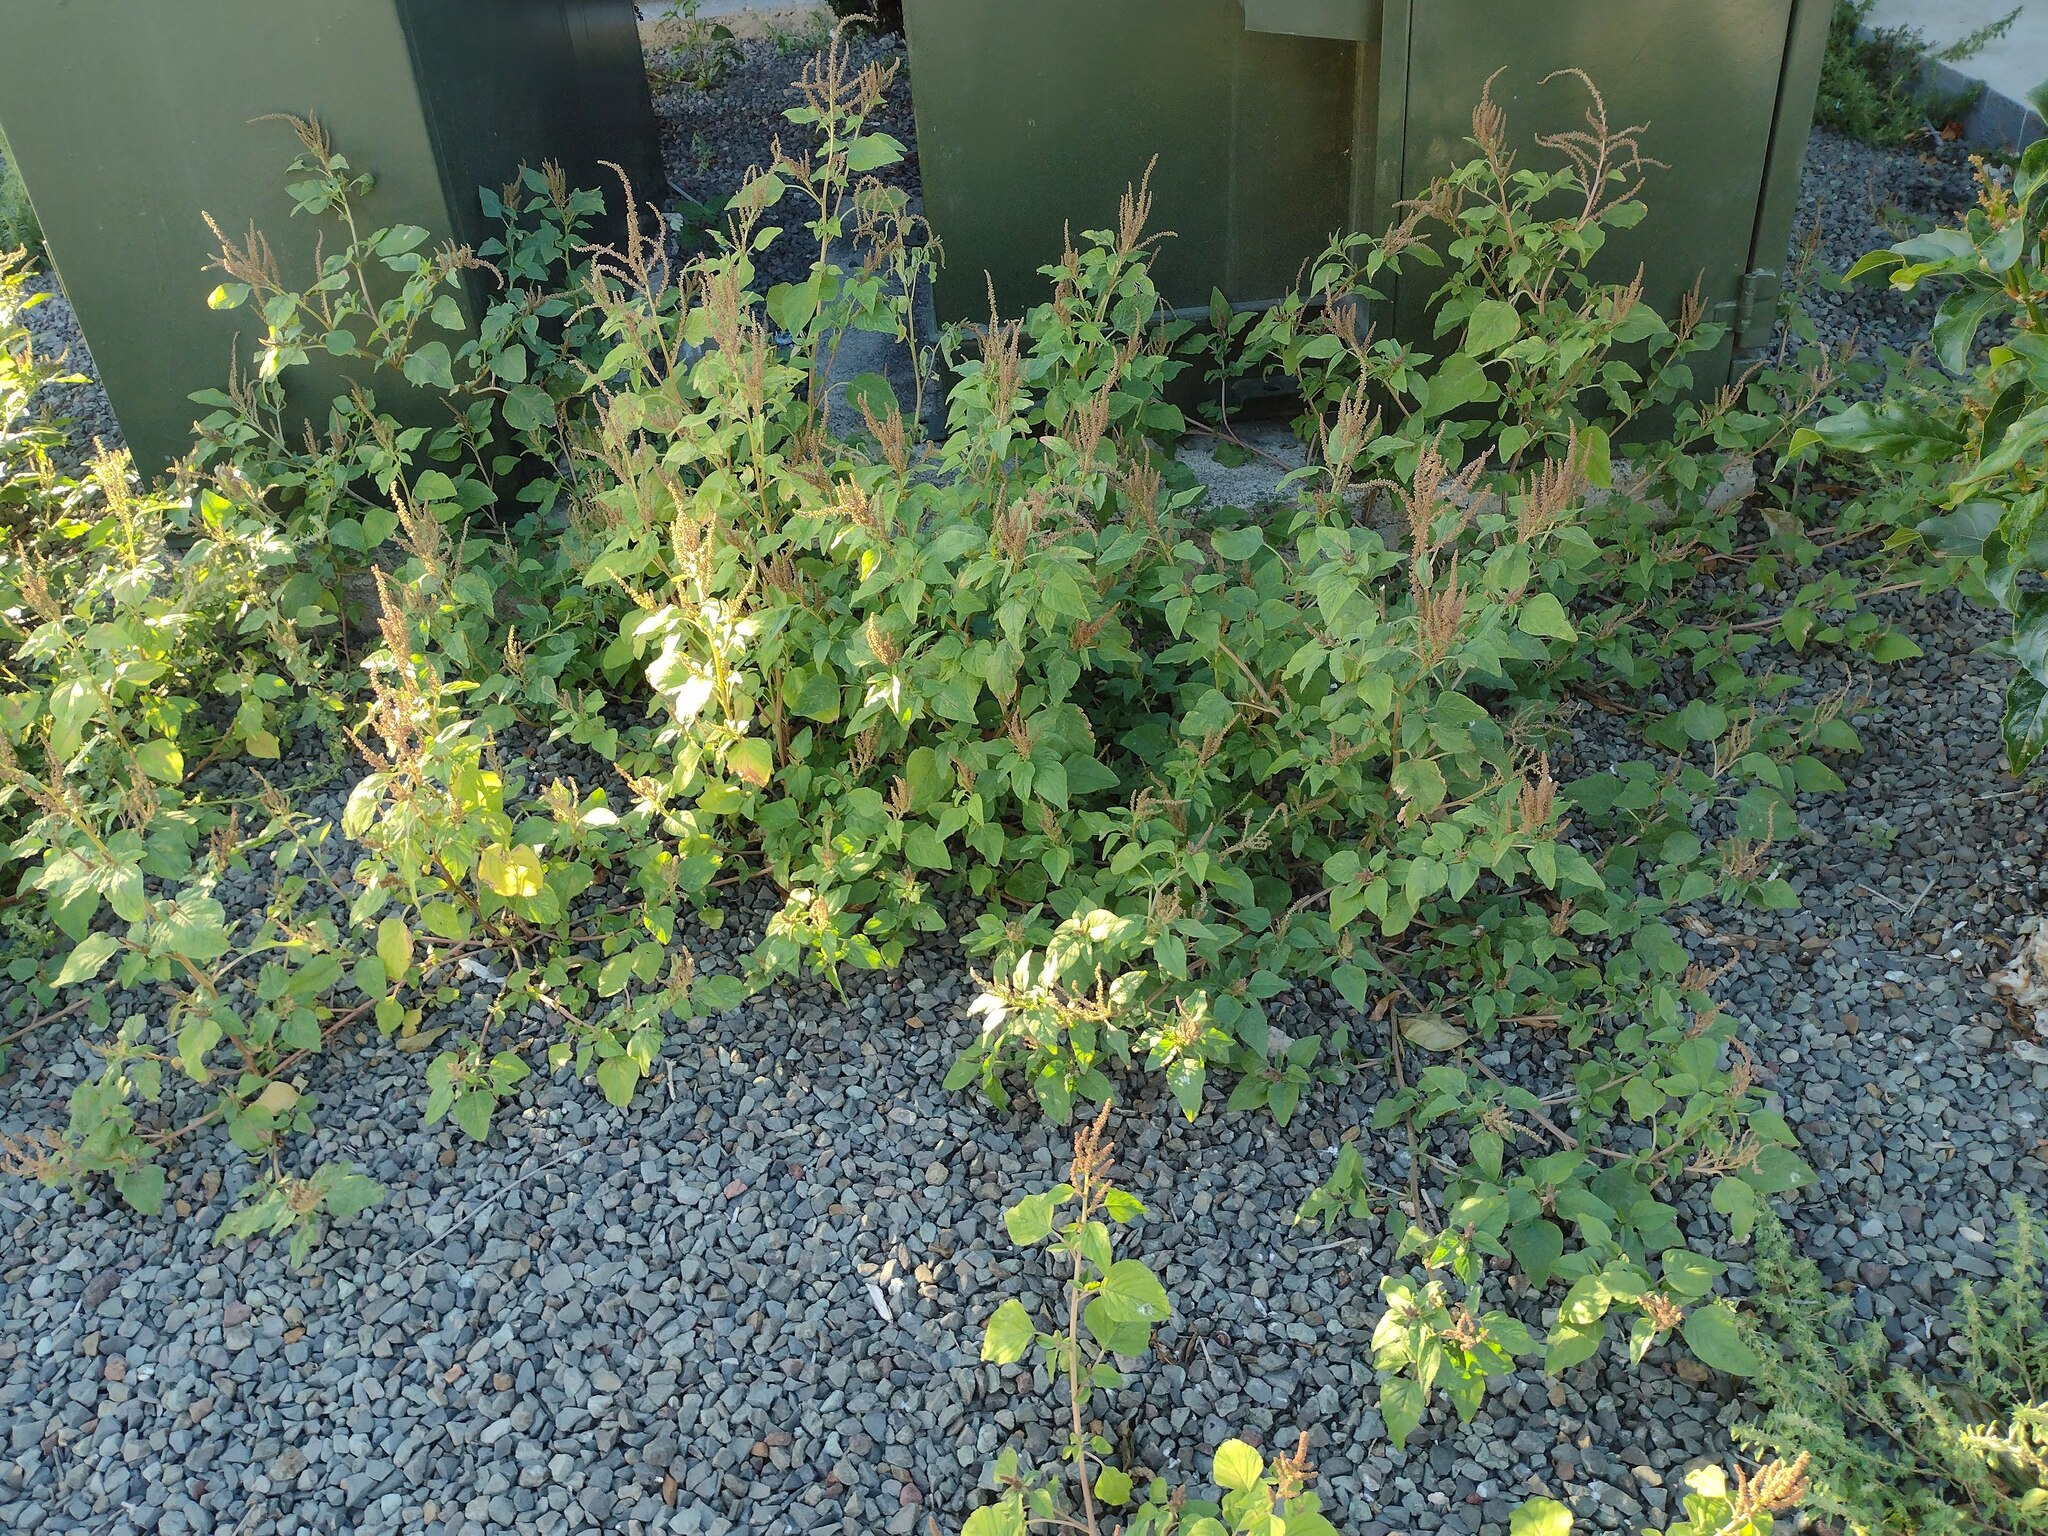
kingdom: Plantae
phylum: Tracheophyta
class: Magnoliopsida
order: Caryophyllales
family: Amaranthaceae
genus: Amaranthus
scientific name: Amaranthus viridis
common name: Slender amaranth
